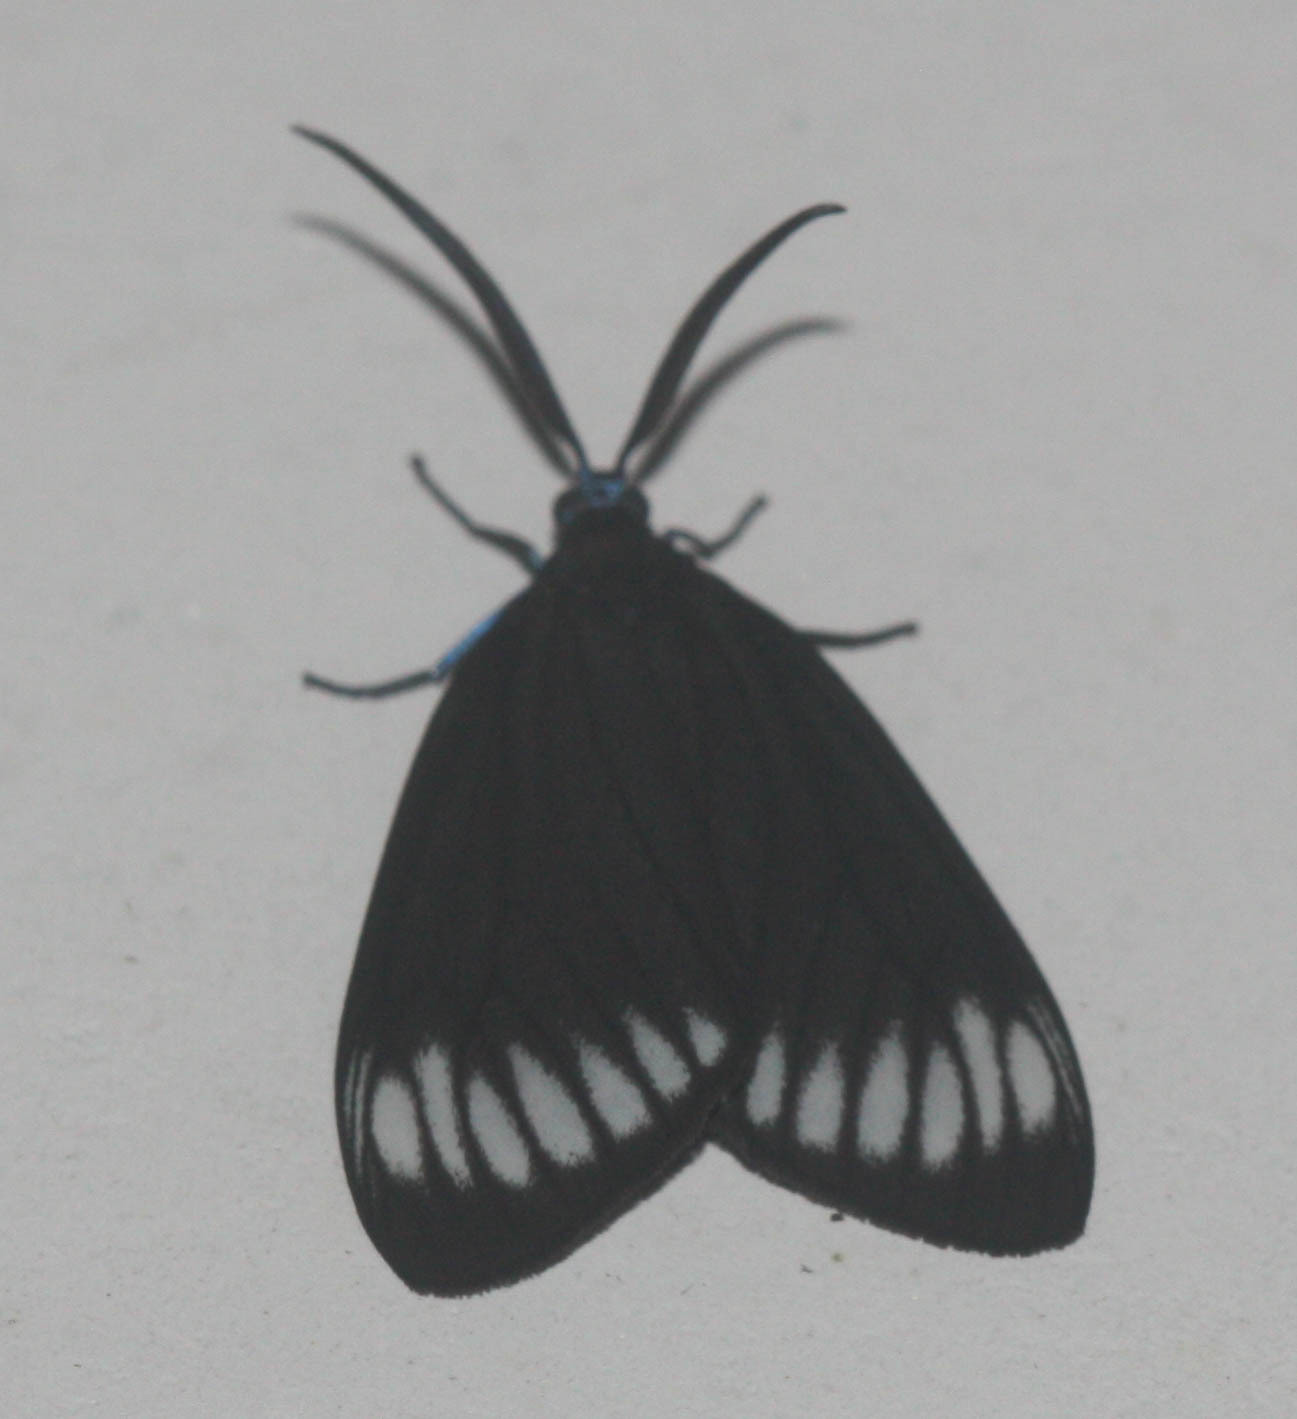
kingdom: Animalia
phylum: Arthropoda
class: Insecta
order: Lepidoptera
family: Zygaenidae
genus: Cyclosia
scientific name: Cyclosia panthona
